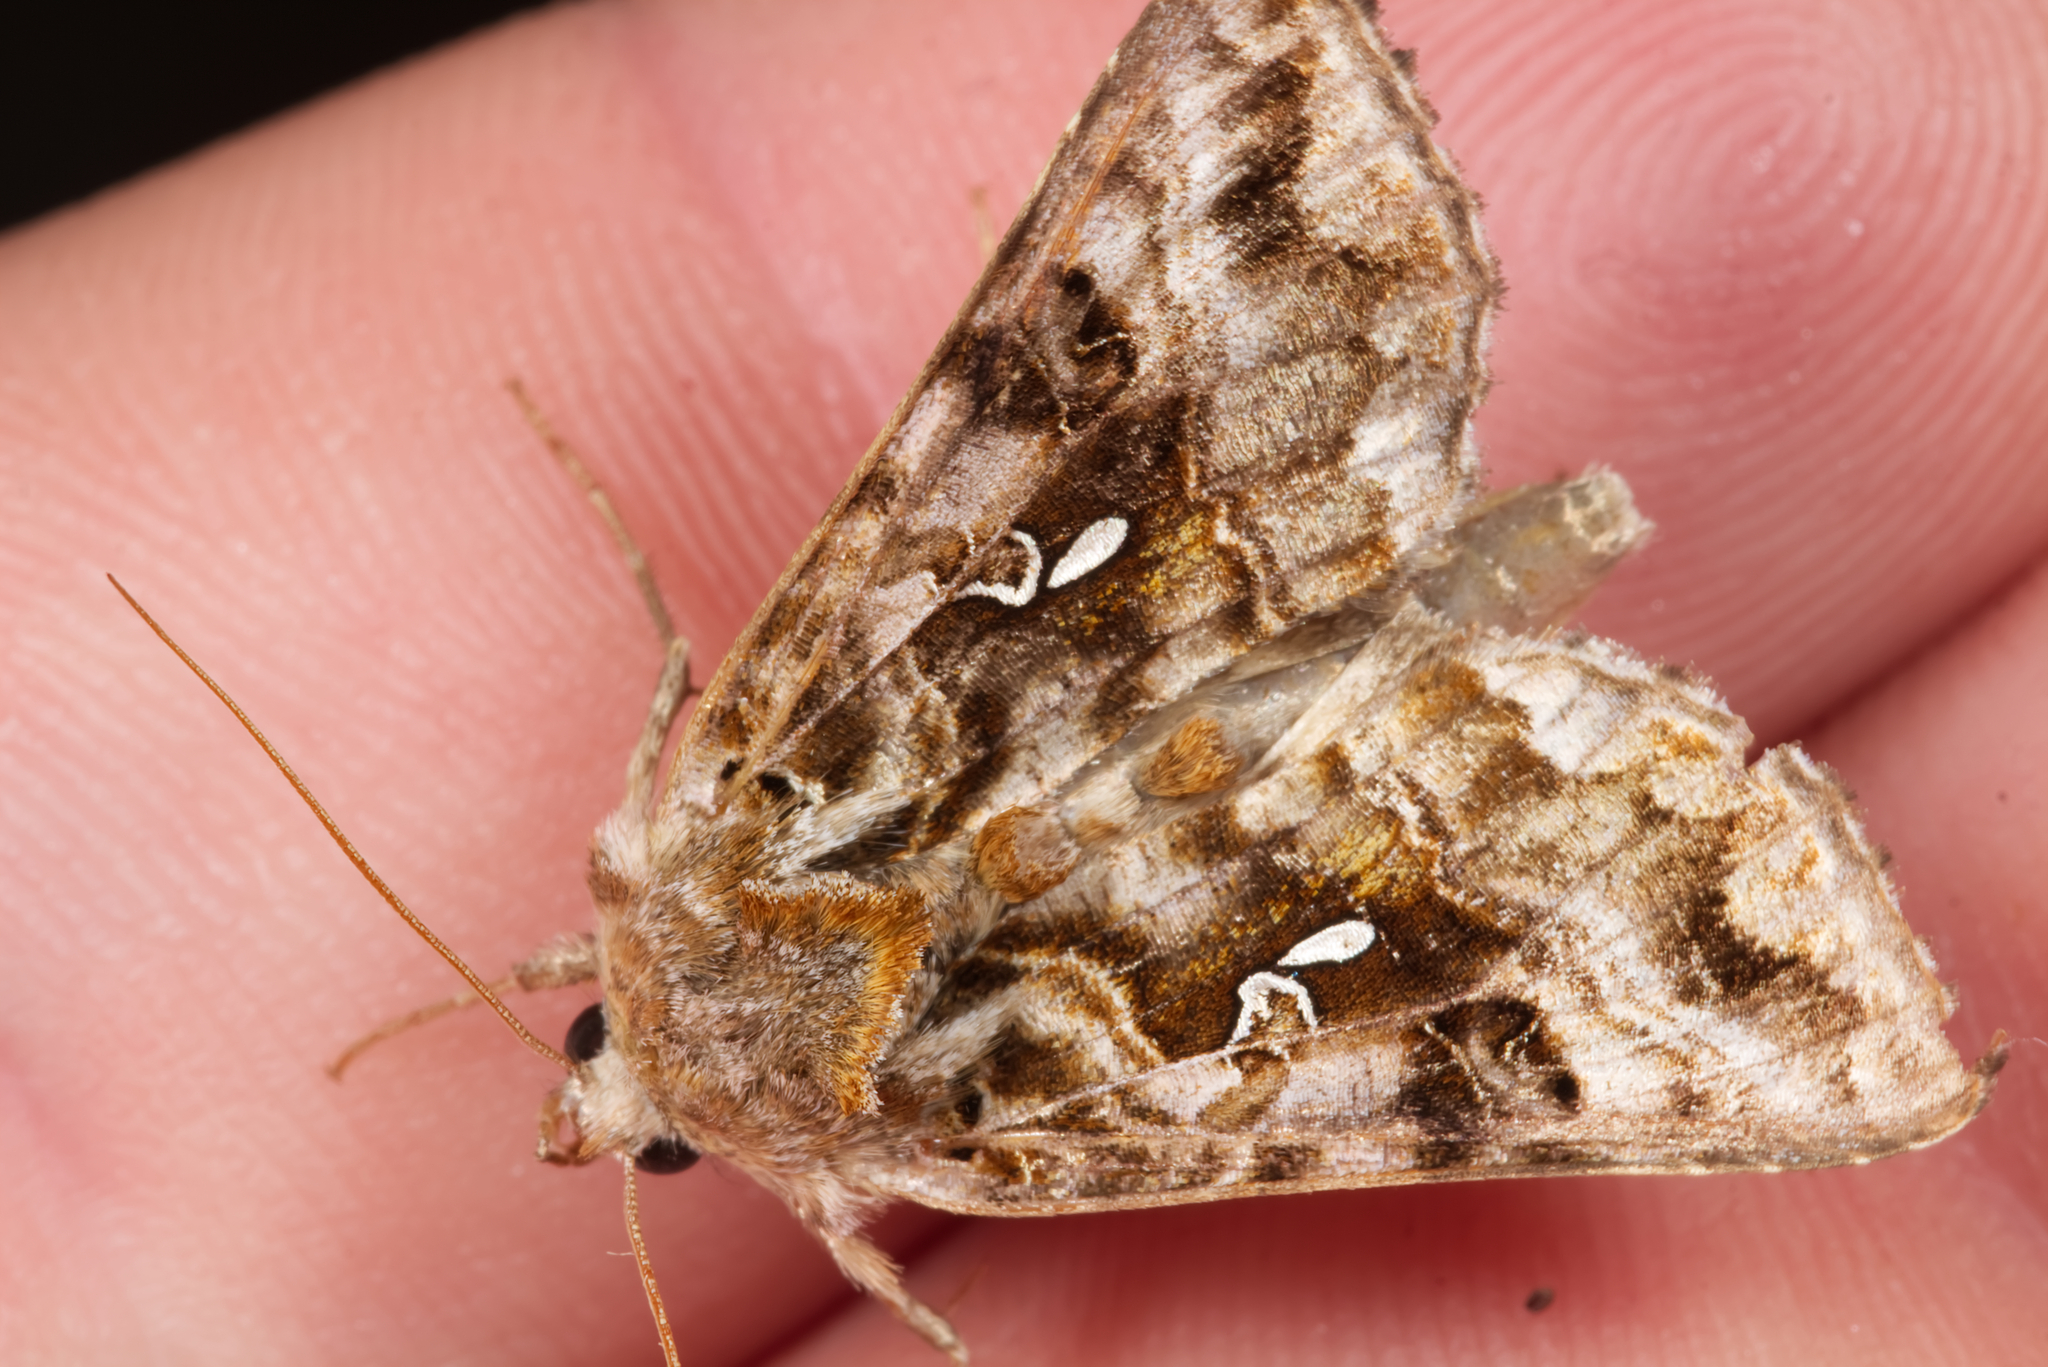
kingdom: Animalia
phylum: Arthropoda
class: Insecta
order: Lepidoptera
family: Noctuidae
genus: Autographa
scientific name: Autographa pulchrina
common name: Beautiful golden y
